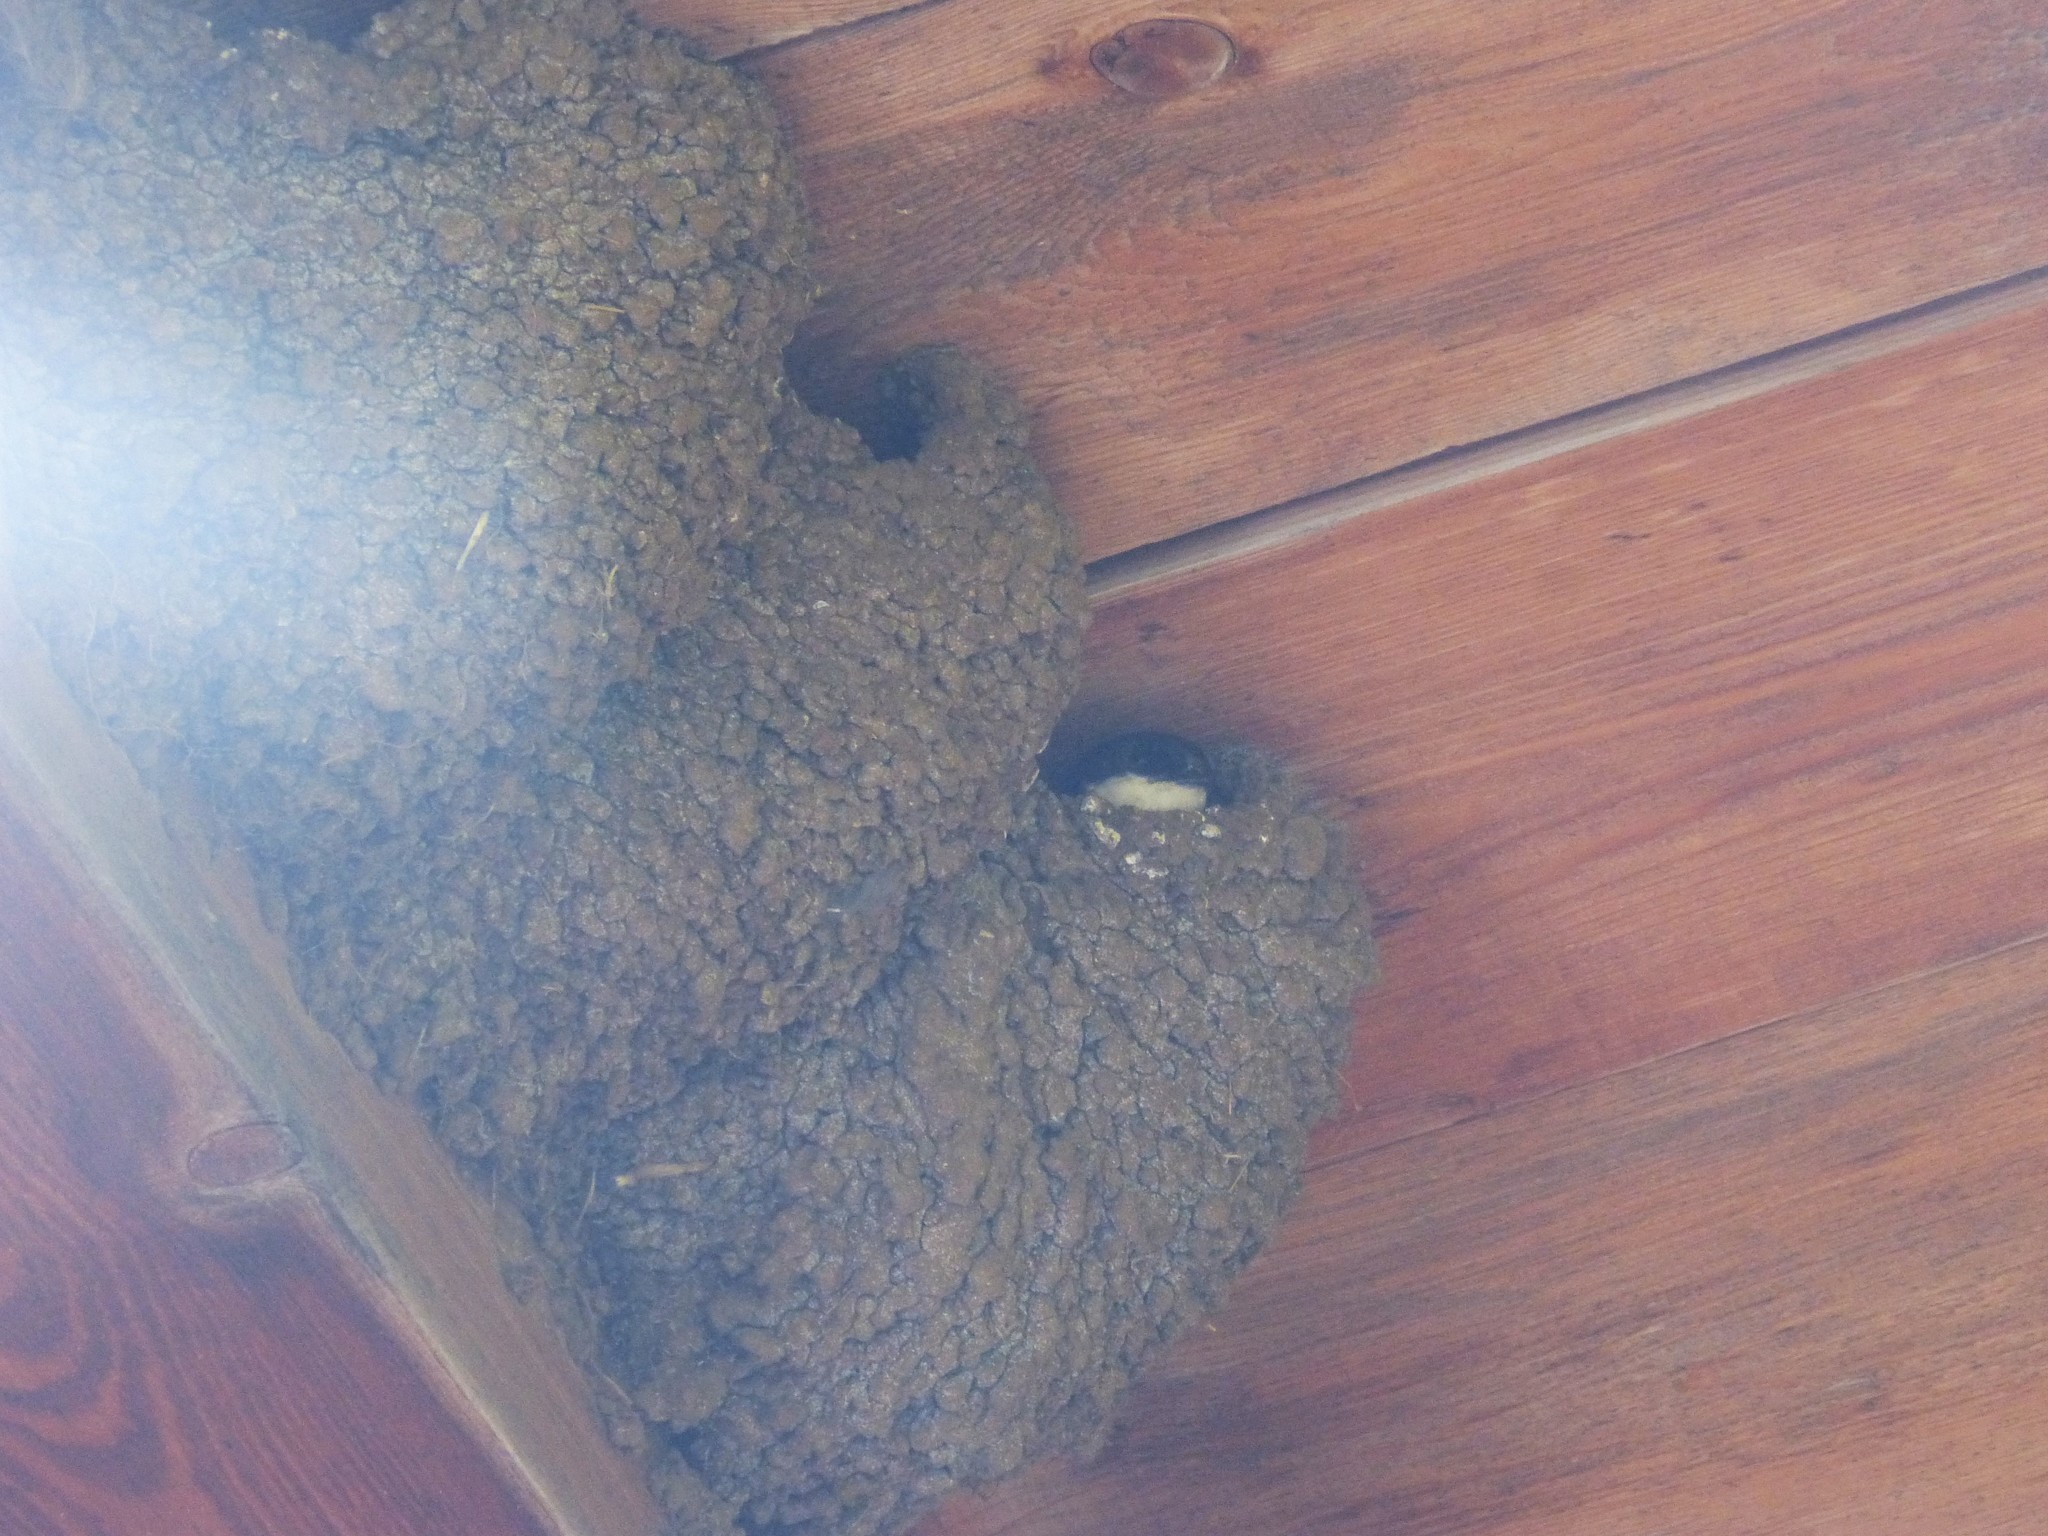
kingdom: Animalia
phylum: Chordata
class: Aves
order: Passeriformes
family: Hirundinidae
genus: Delichon
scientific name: Delichon urbicum
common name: Common house martin
